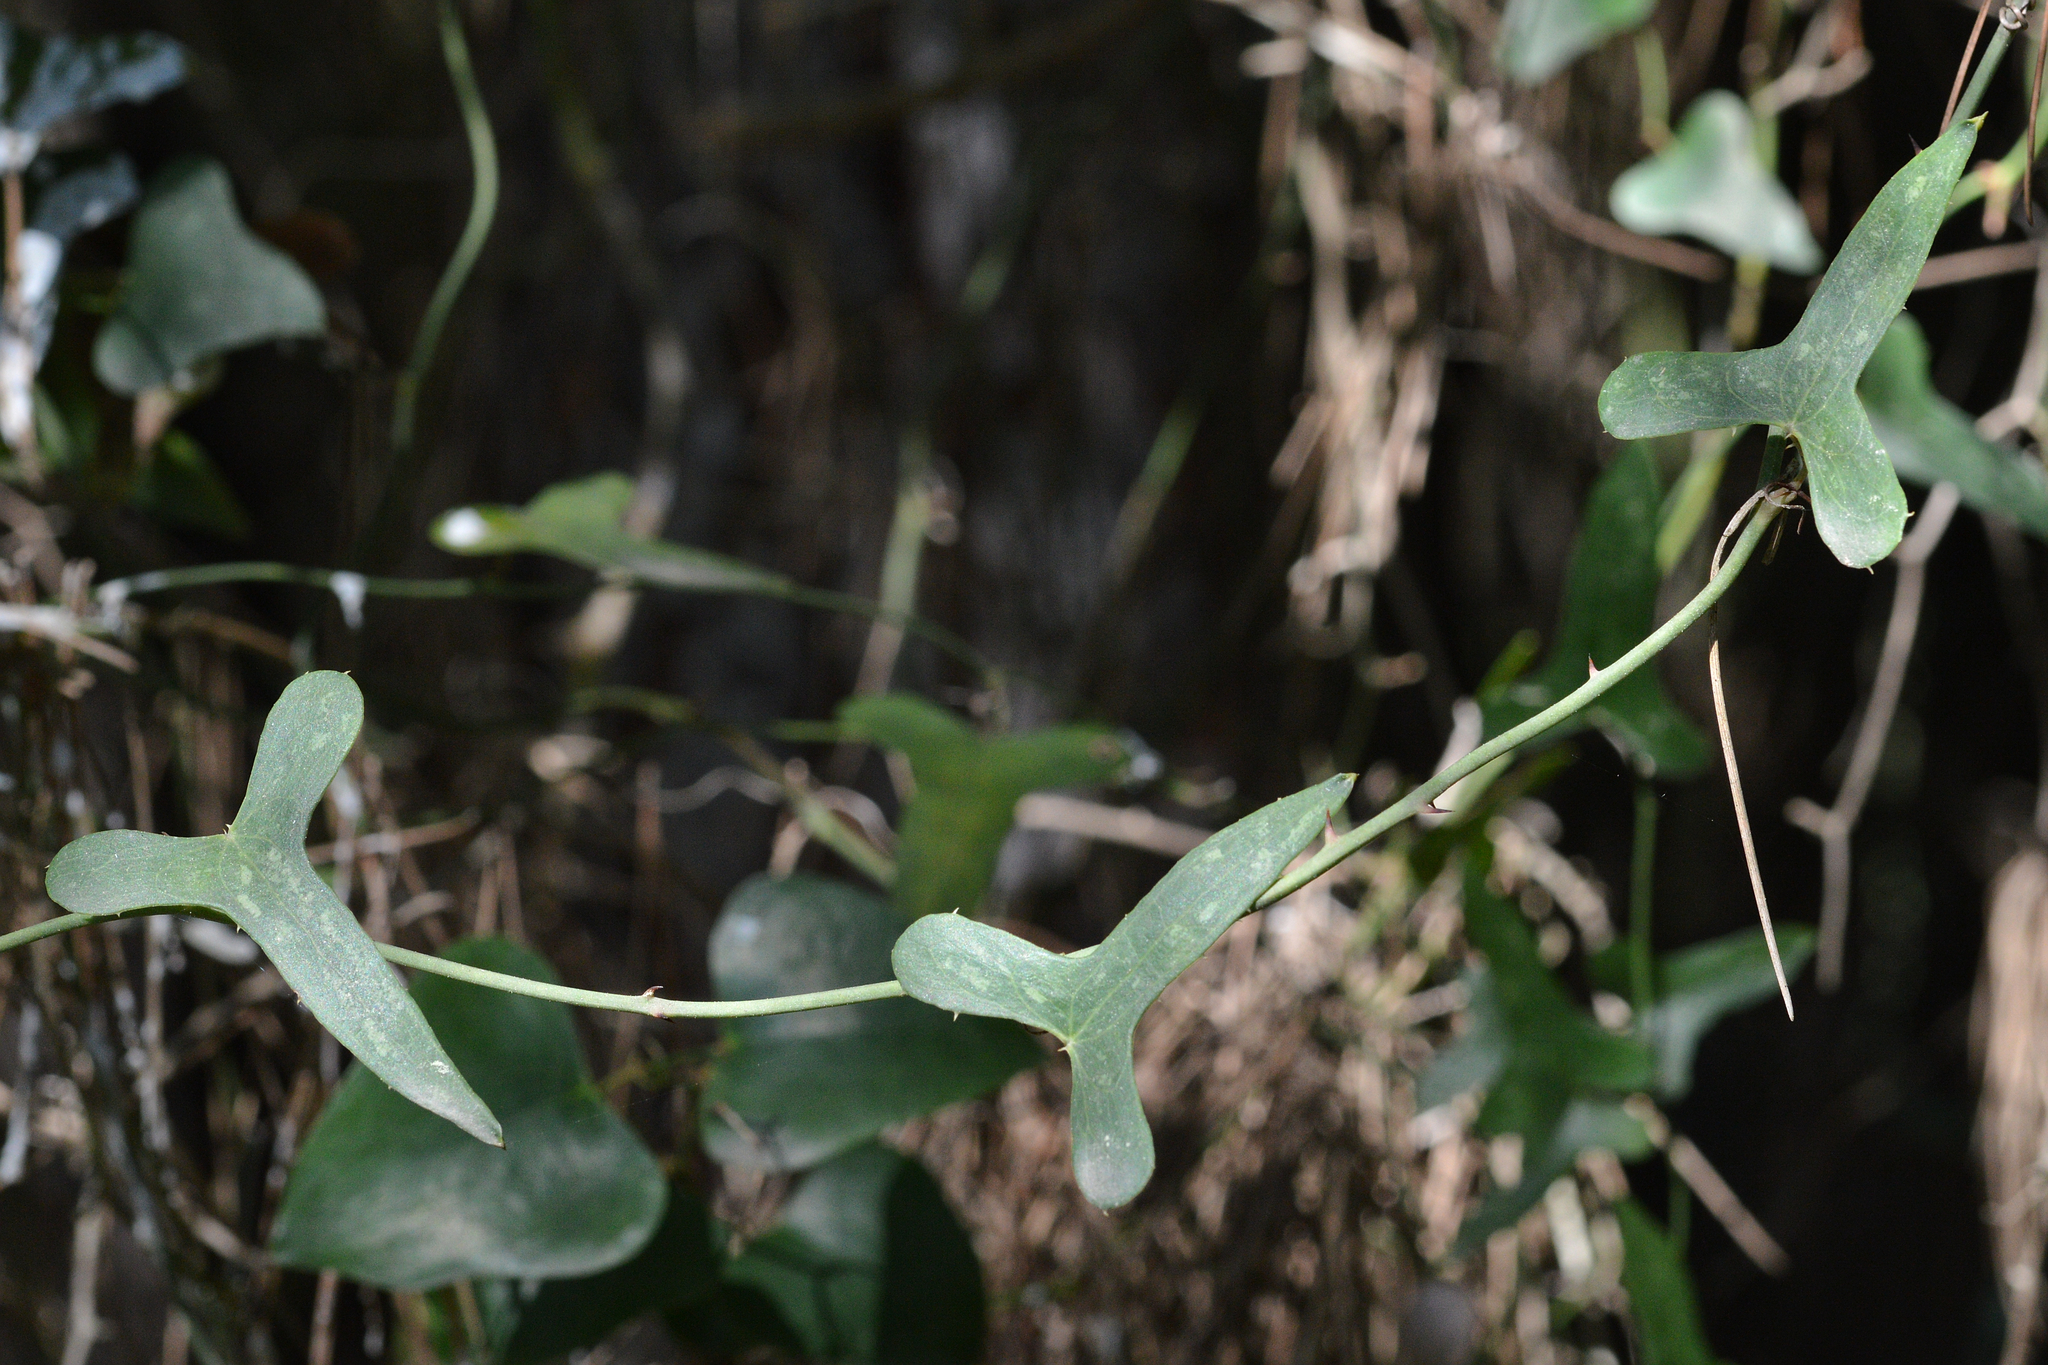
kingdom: Plantae
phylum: Tracheophyta
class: Liliopsida
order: Liliales
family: Smilacaceae
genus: Smilax
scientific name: Smilax aspera
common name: Common smilax
